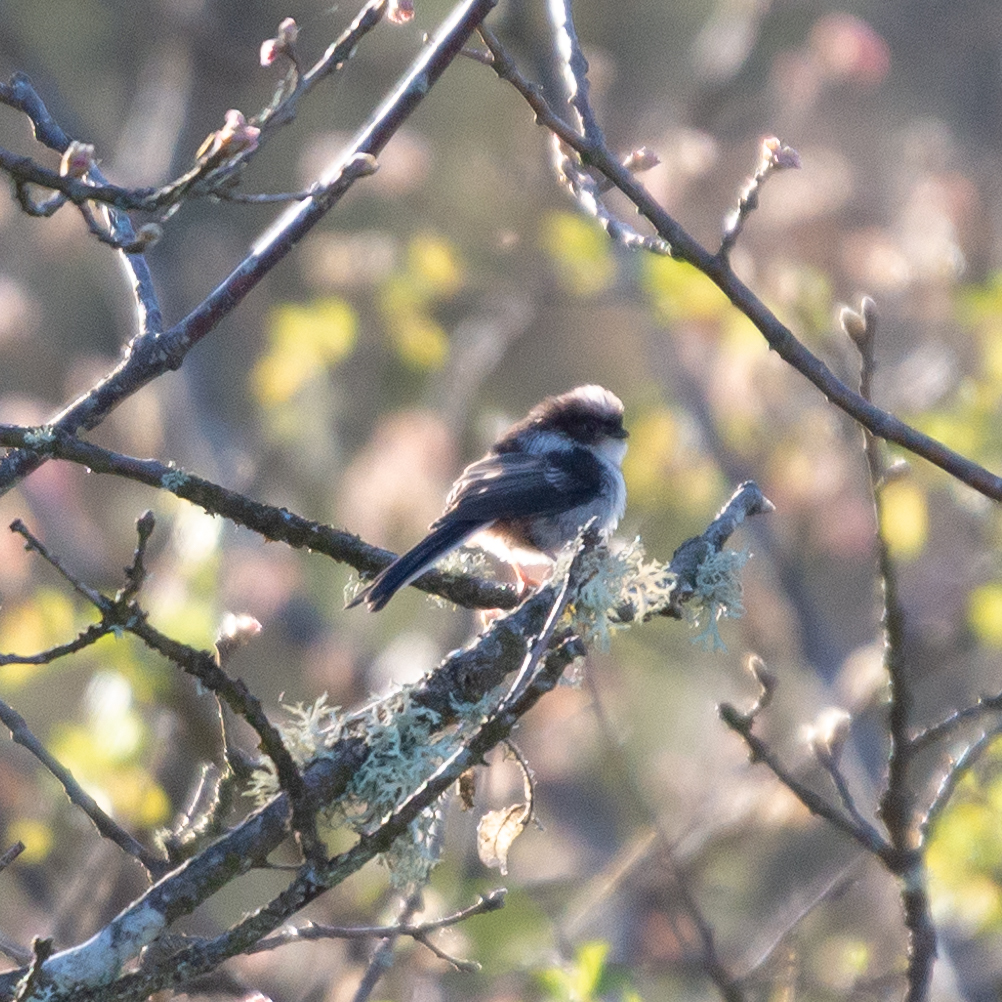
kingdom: Animalia
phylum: Chordata
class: Aves
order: Passeriformes
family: Aegithalidae
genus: Aegithalos
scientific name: Aegithalos caudatus
